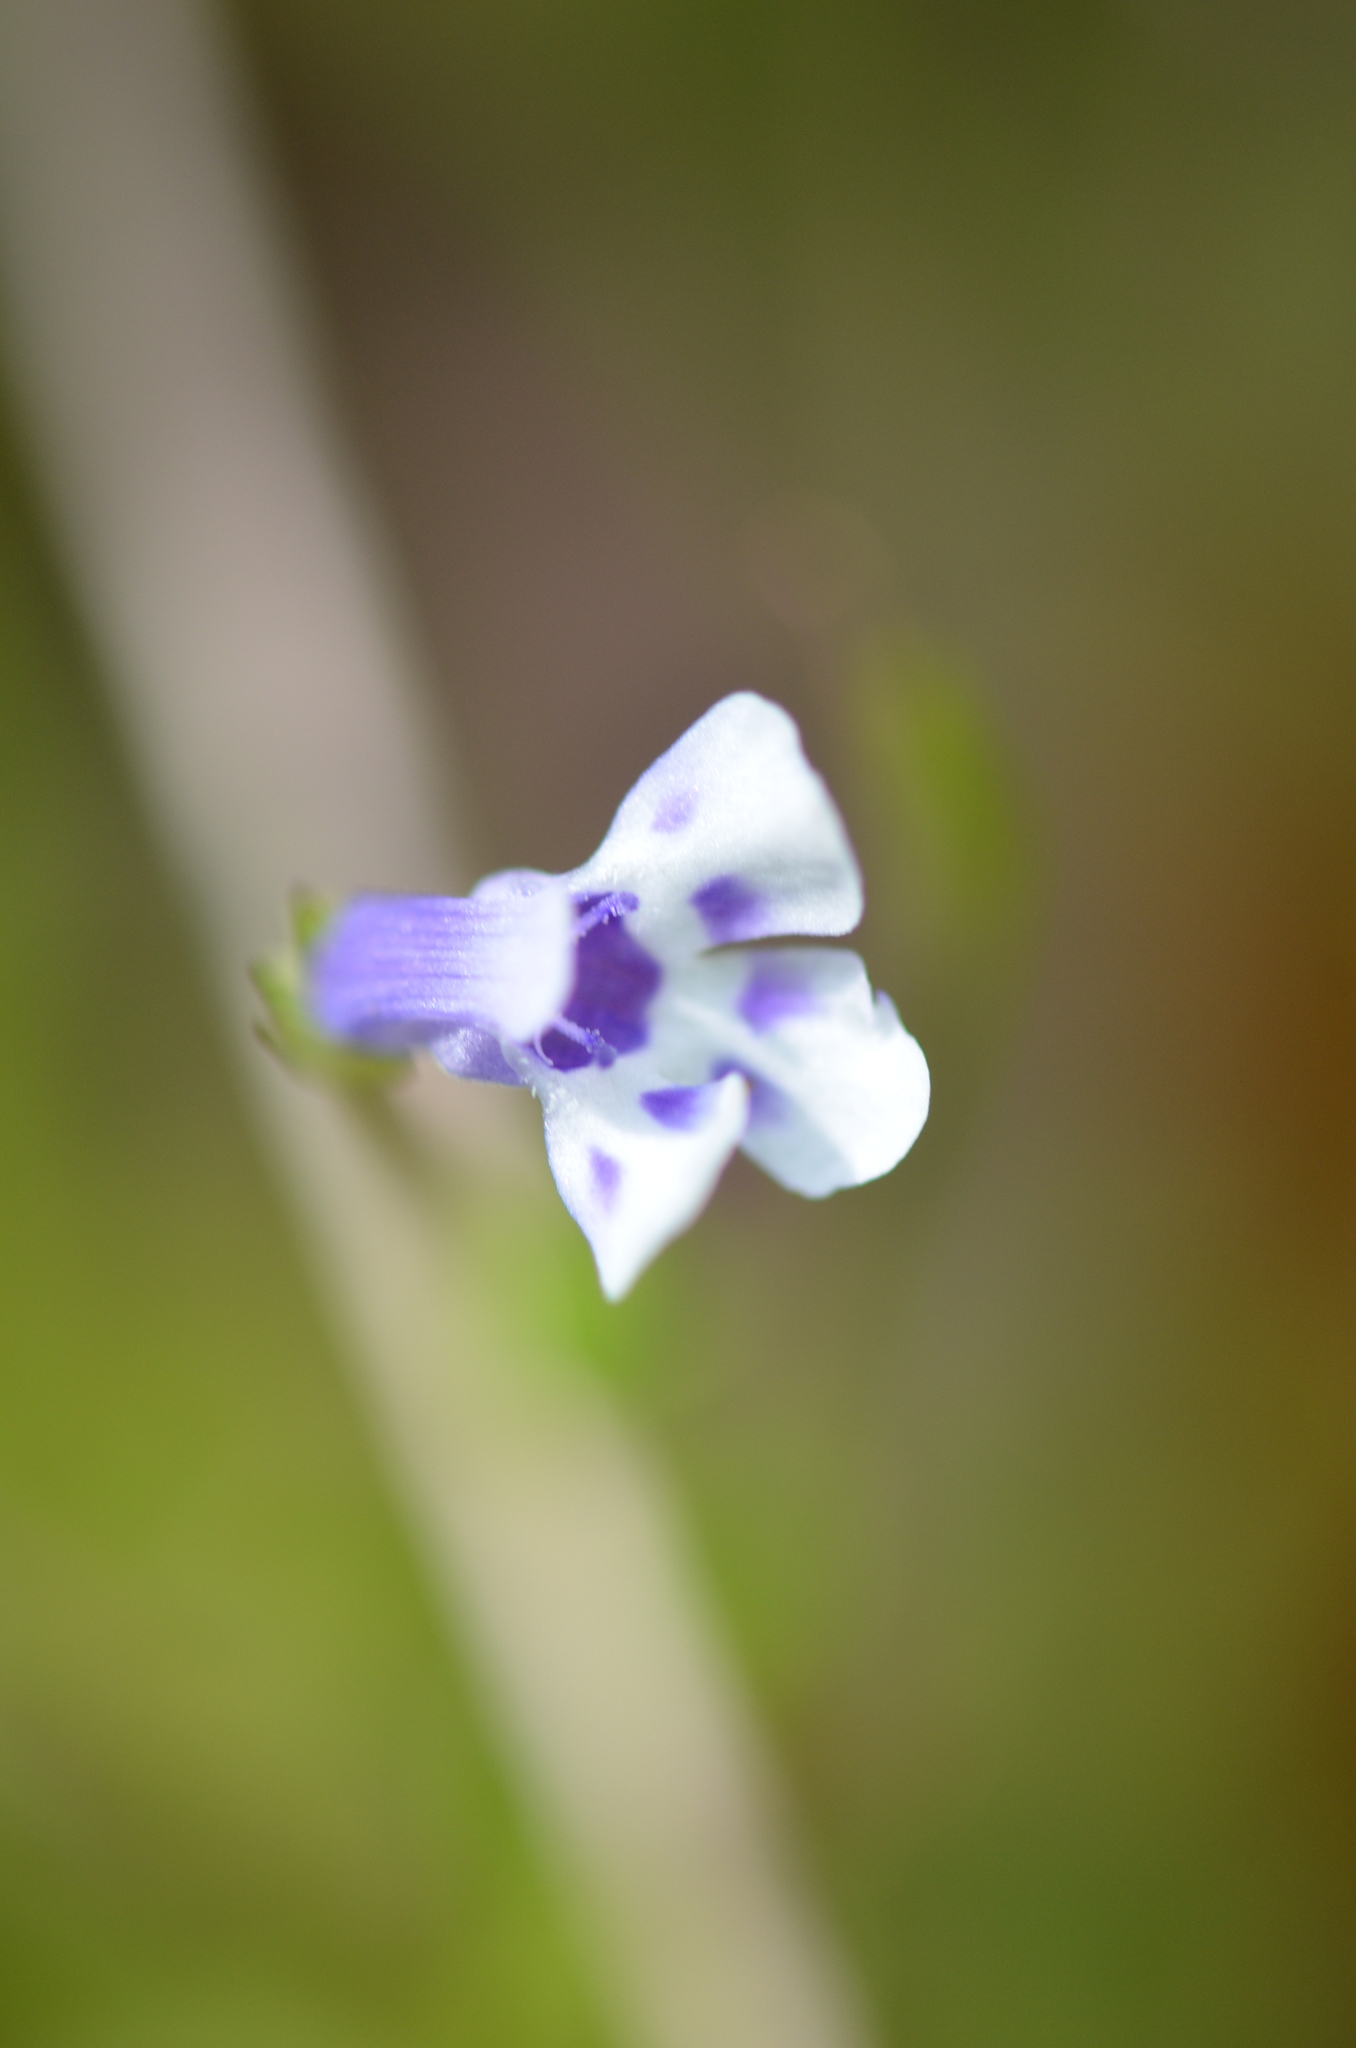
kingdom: Plantae
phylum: Tracheophyta
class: Magnoliopsida
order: Lamiales
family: Linderniaceae
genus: Lindernia
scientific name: Lindernia grandiflora
